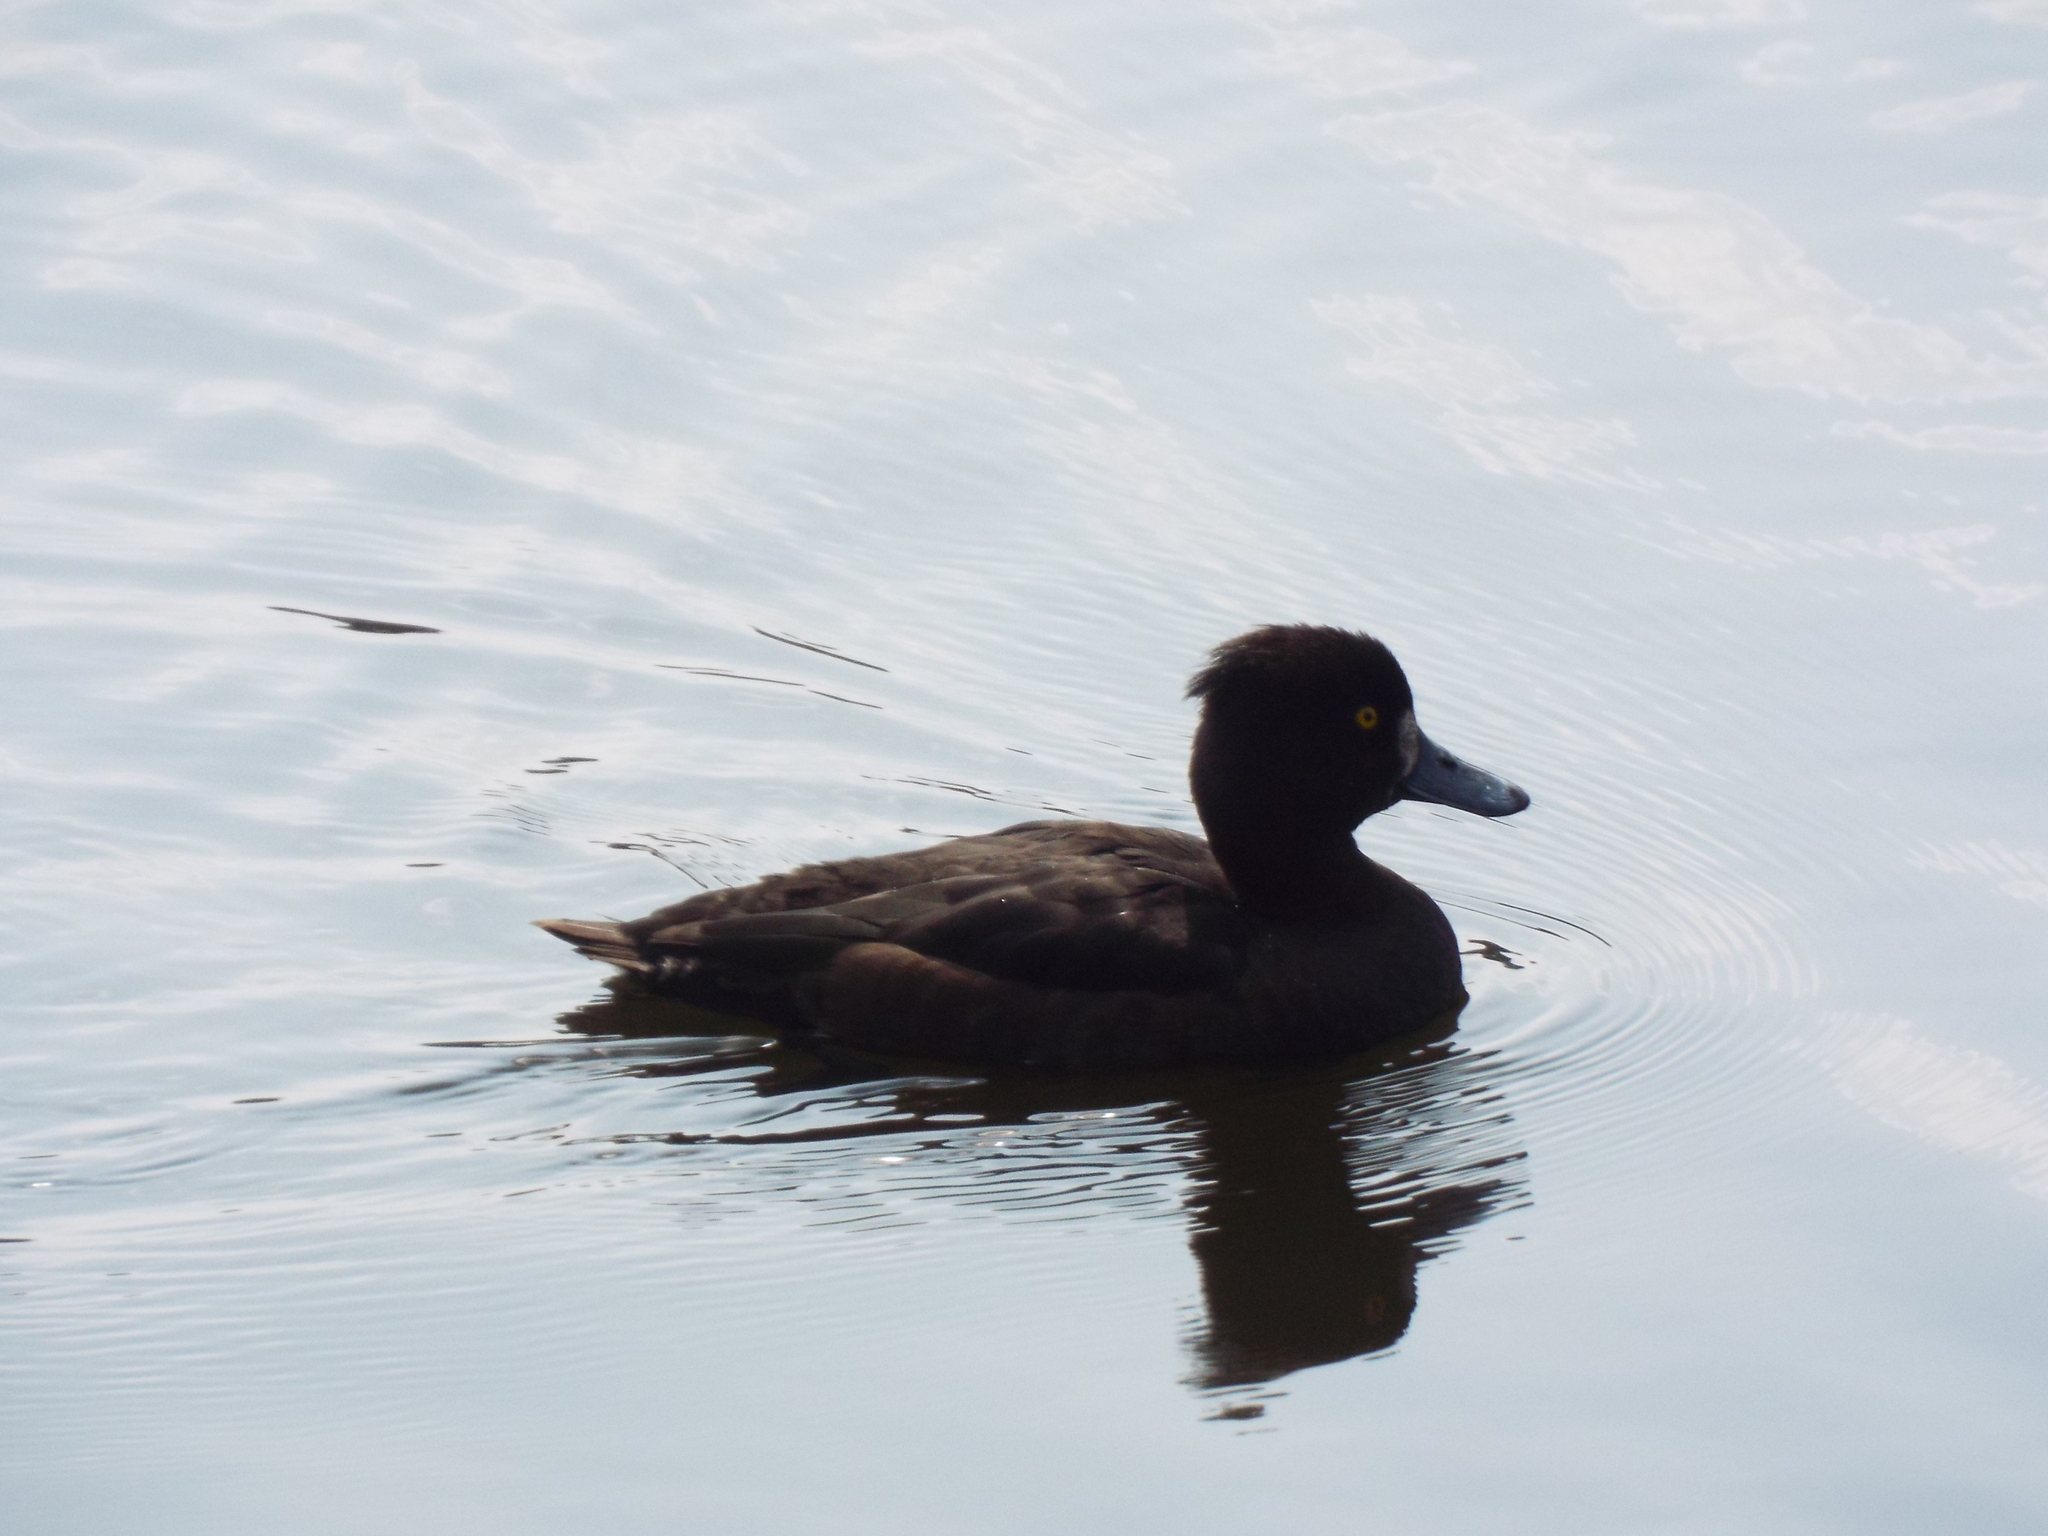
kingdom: Animalia
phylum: Chordata
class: Aves
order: Anseriformes
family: Anatidae
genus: Aythya
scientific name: Aythya fuligula
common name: Tufted duck
